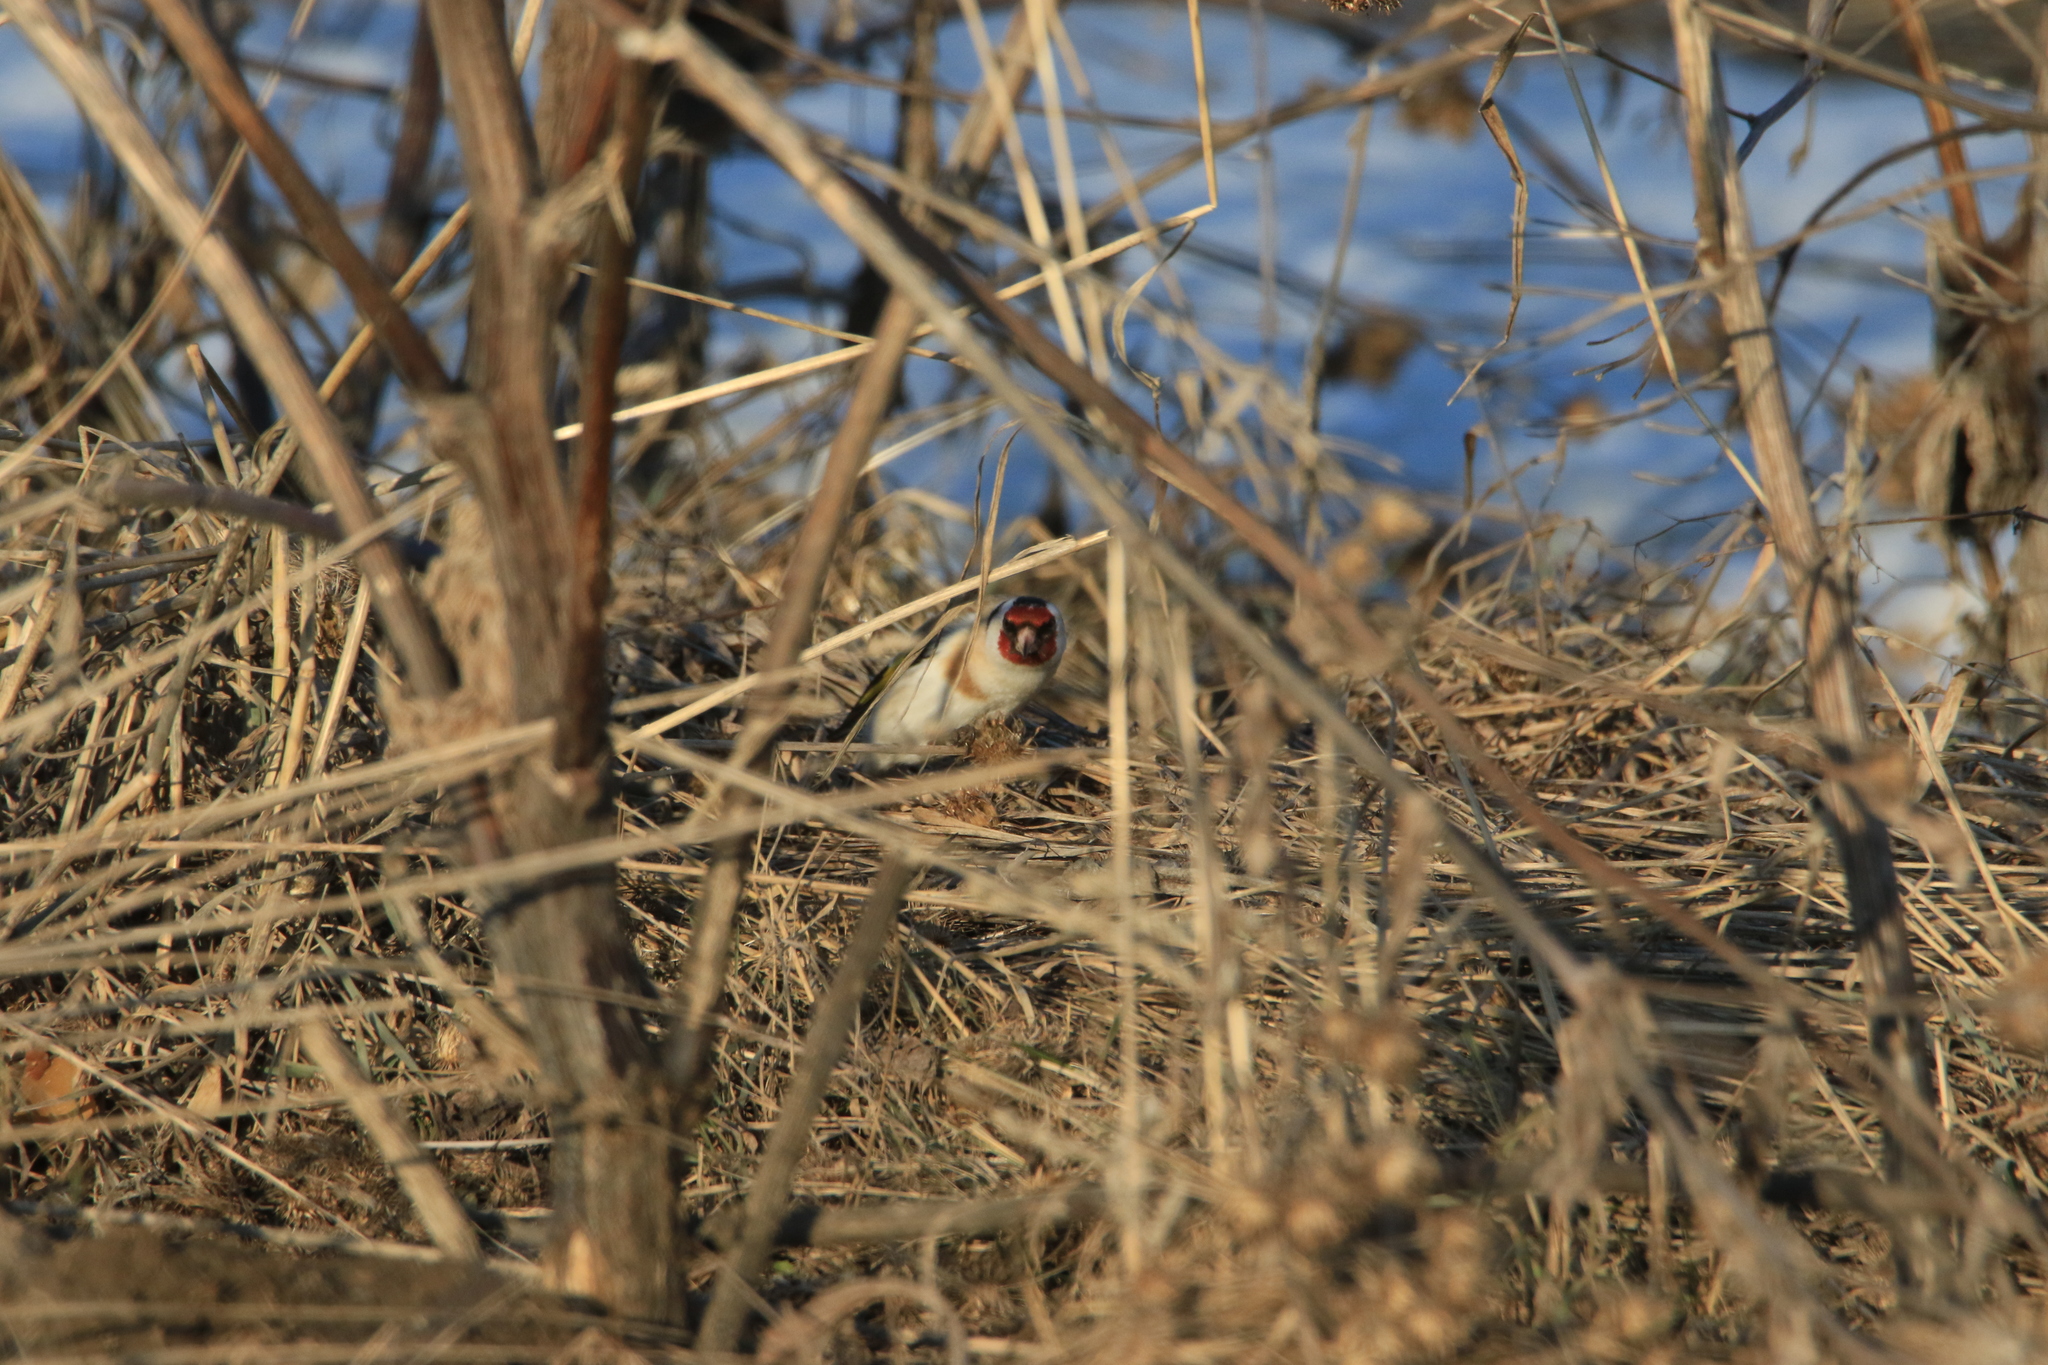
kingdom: Animalia
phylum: Chordata
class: Aves
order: Passeriformes
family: Fringillidae
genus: Carduelis
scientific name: Carduelis carduelis
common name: European goldfinch
